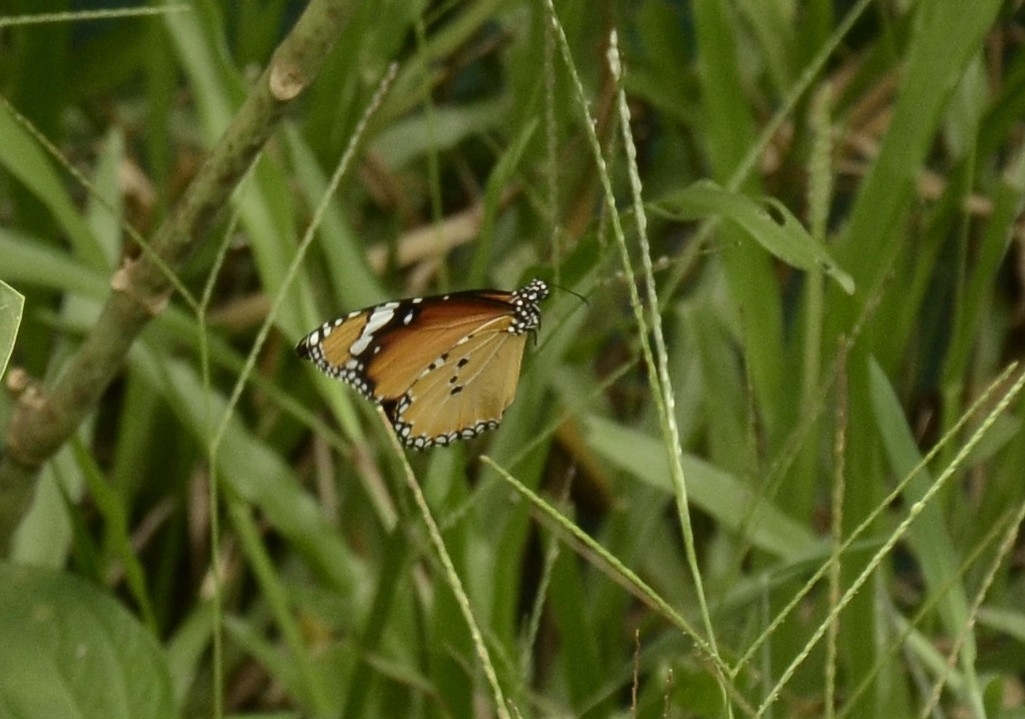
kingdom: Animalia
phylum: Arthropoda
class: Insecta
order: Lepidoptera
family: Nymphalidae
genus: Danaus
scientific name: Danaus chrysippus
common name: Plain tiger
